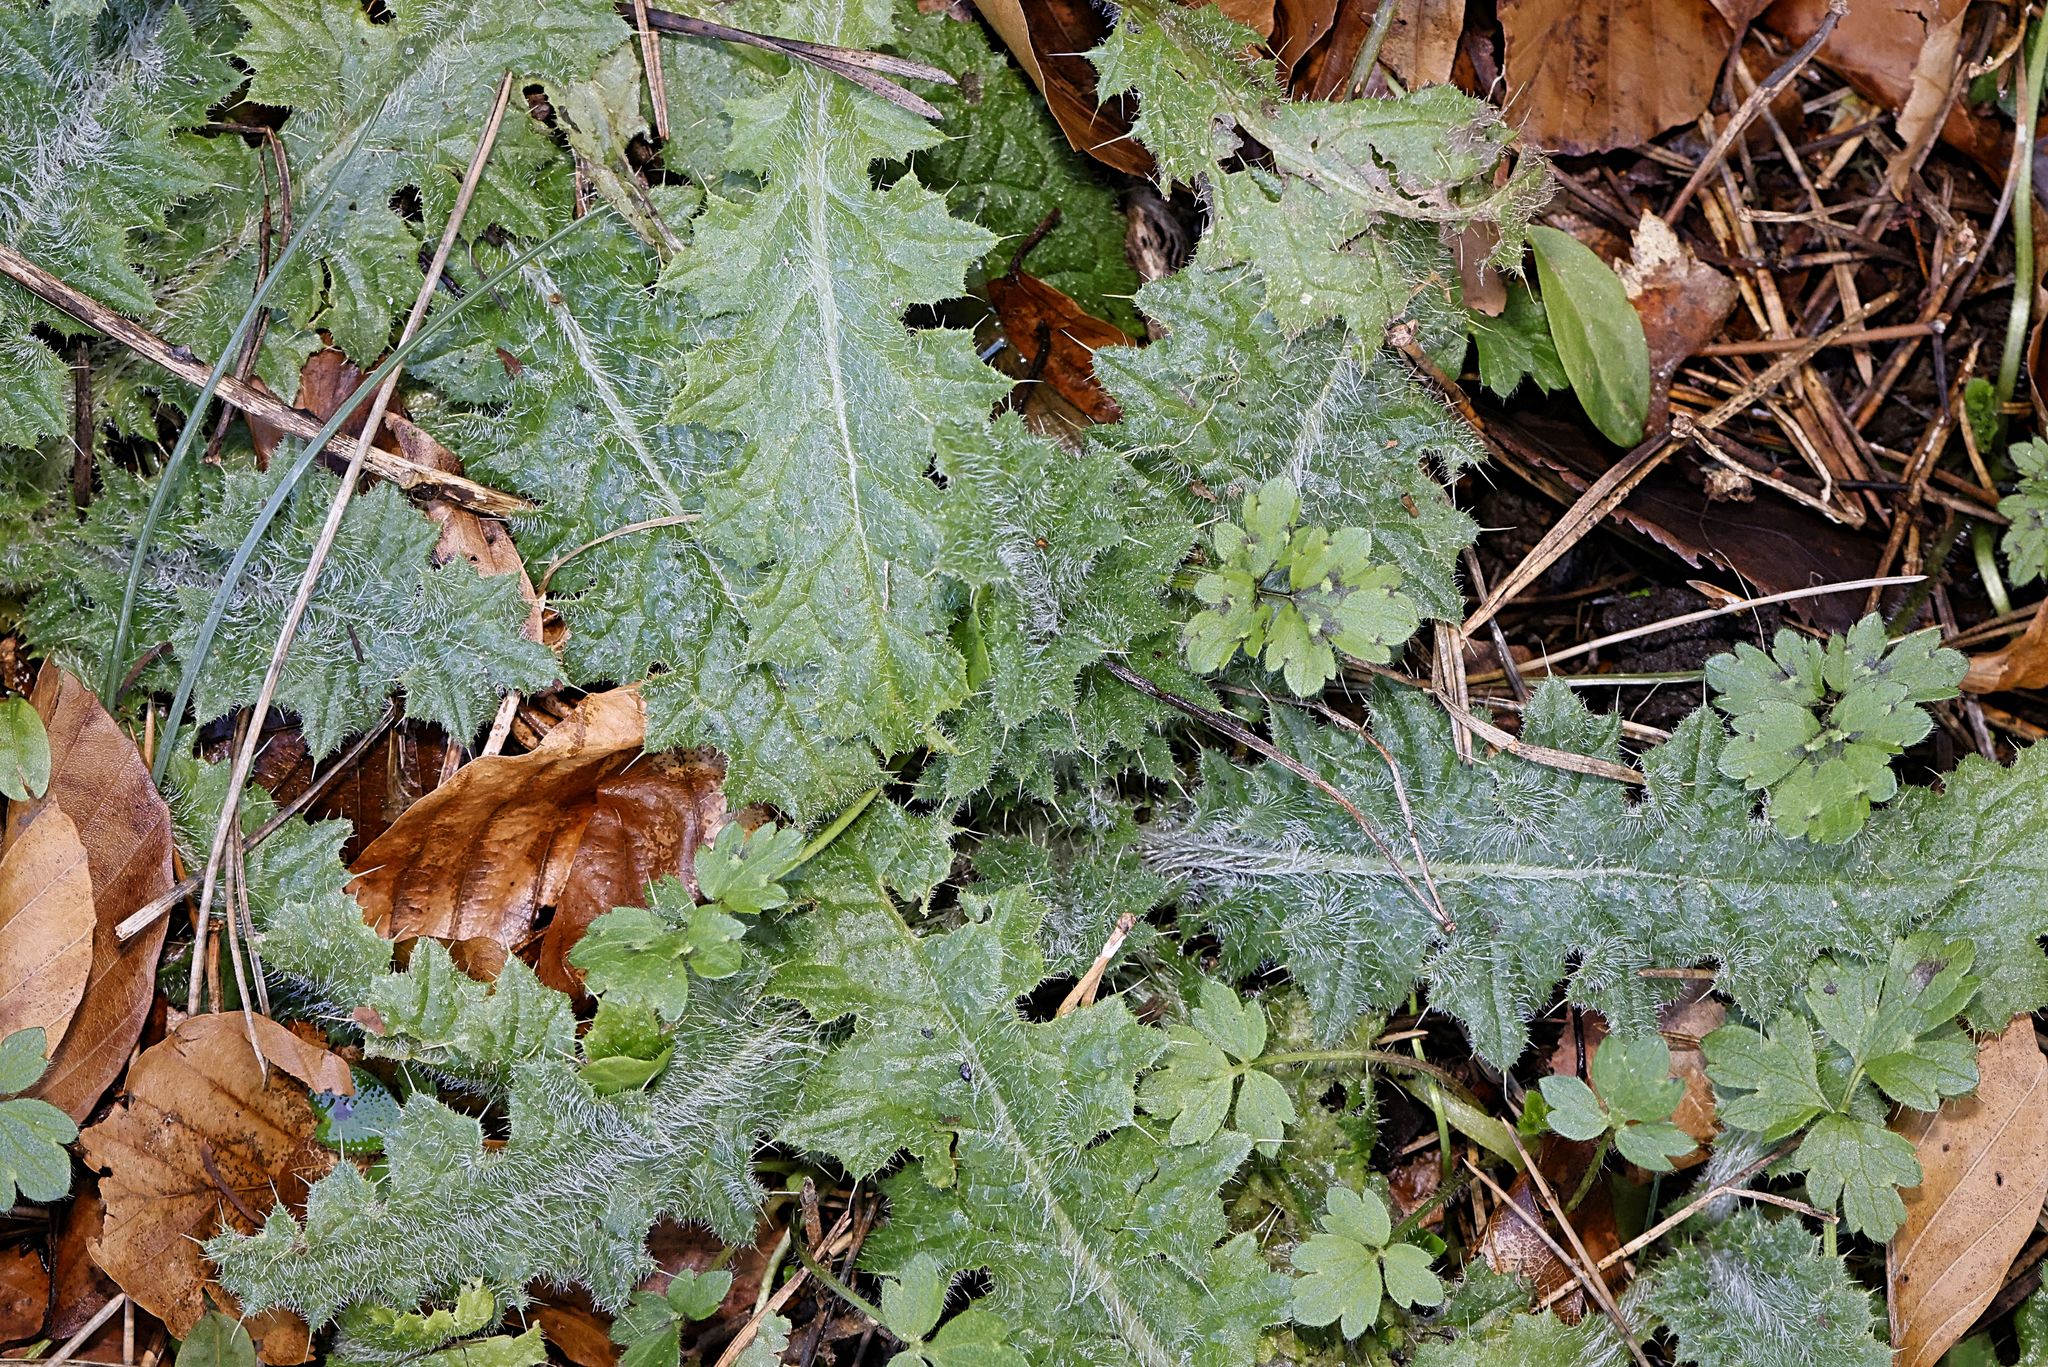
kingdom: Plantae
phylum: Tracheophyta
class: Magnoliopsida
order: Asterales
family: Asteraceae
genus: Cirsium
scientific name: Cirsium vulgare
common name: Bull thistle
